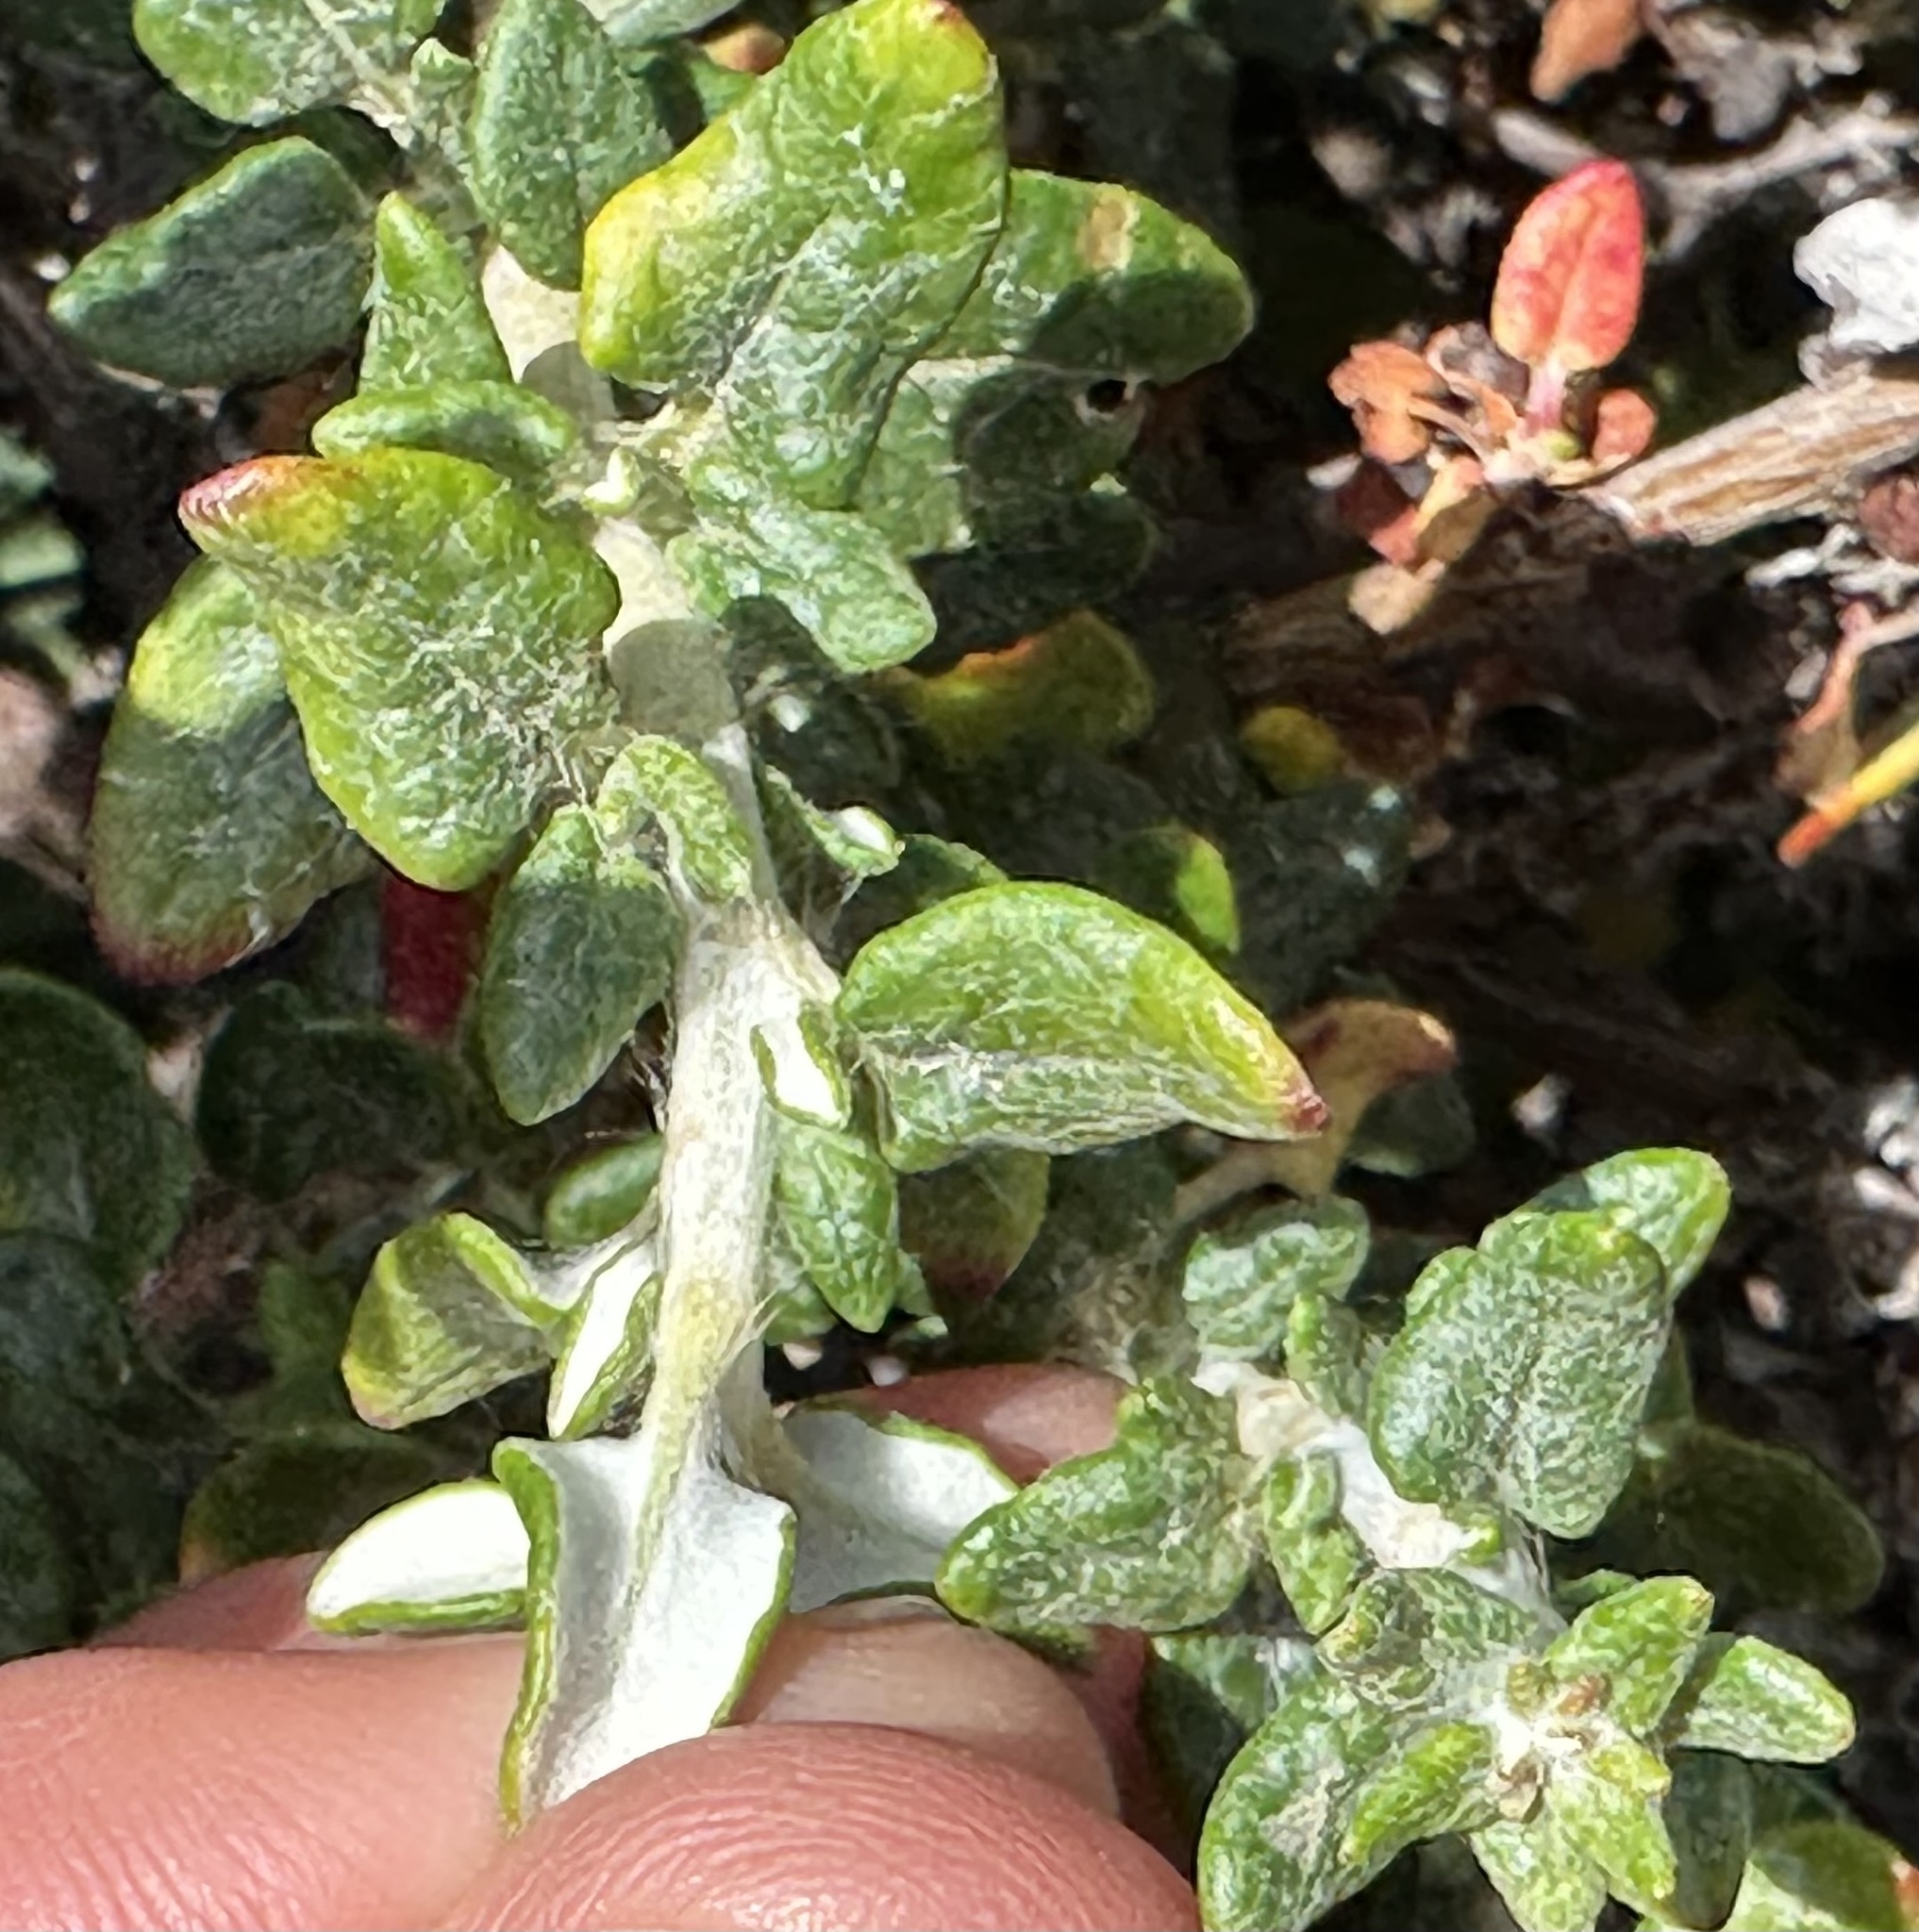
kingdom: Plantae
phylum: Tracheophyta
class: Magnoliopsida
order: Caryophyllales
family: Polygonaceae
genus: Eriogonum
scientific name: Eriogonum parvifolium
